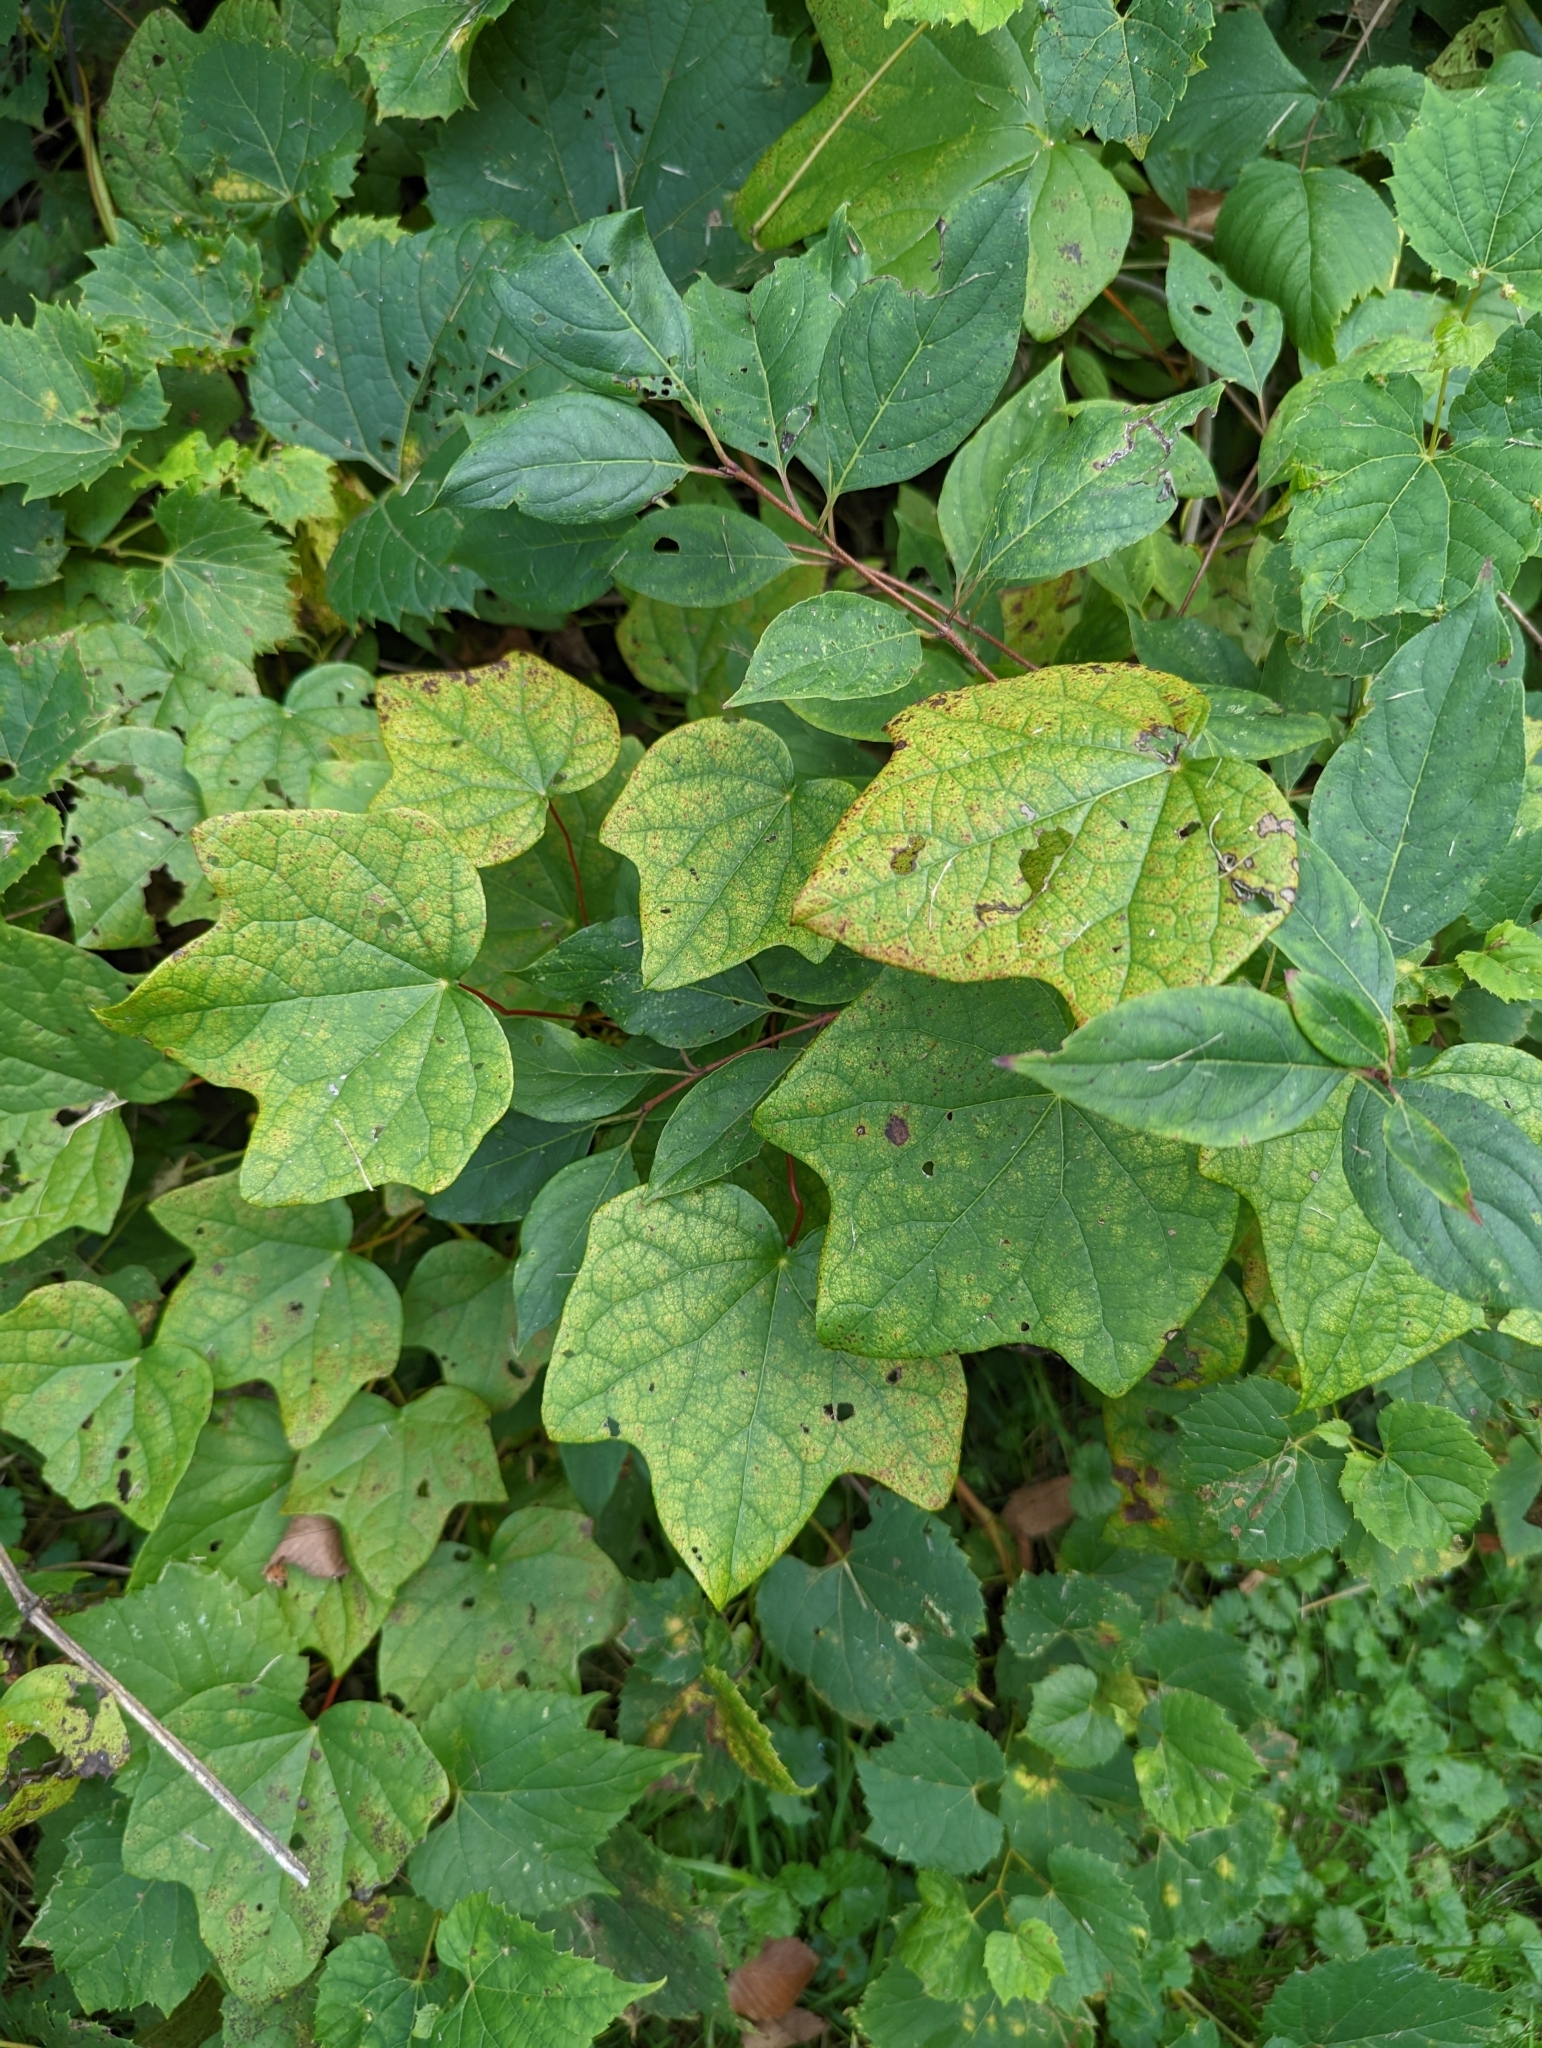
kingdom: Plantae
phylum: Tracheophyta
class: Magnoliopsida
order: Ranunculales
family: Menispermaceae
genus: Menispermum
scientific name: Menispermum canadense
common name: Moonseed
